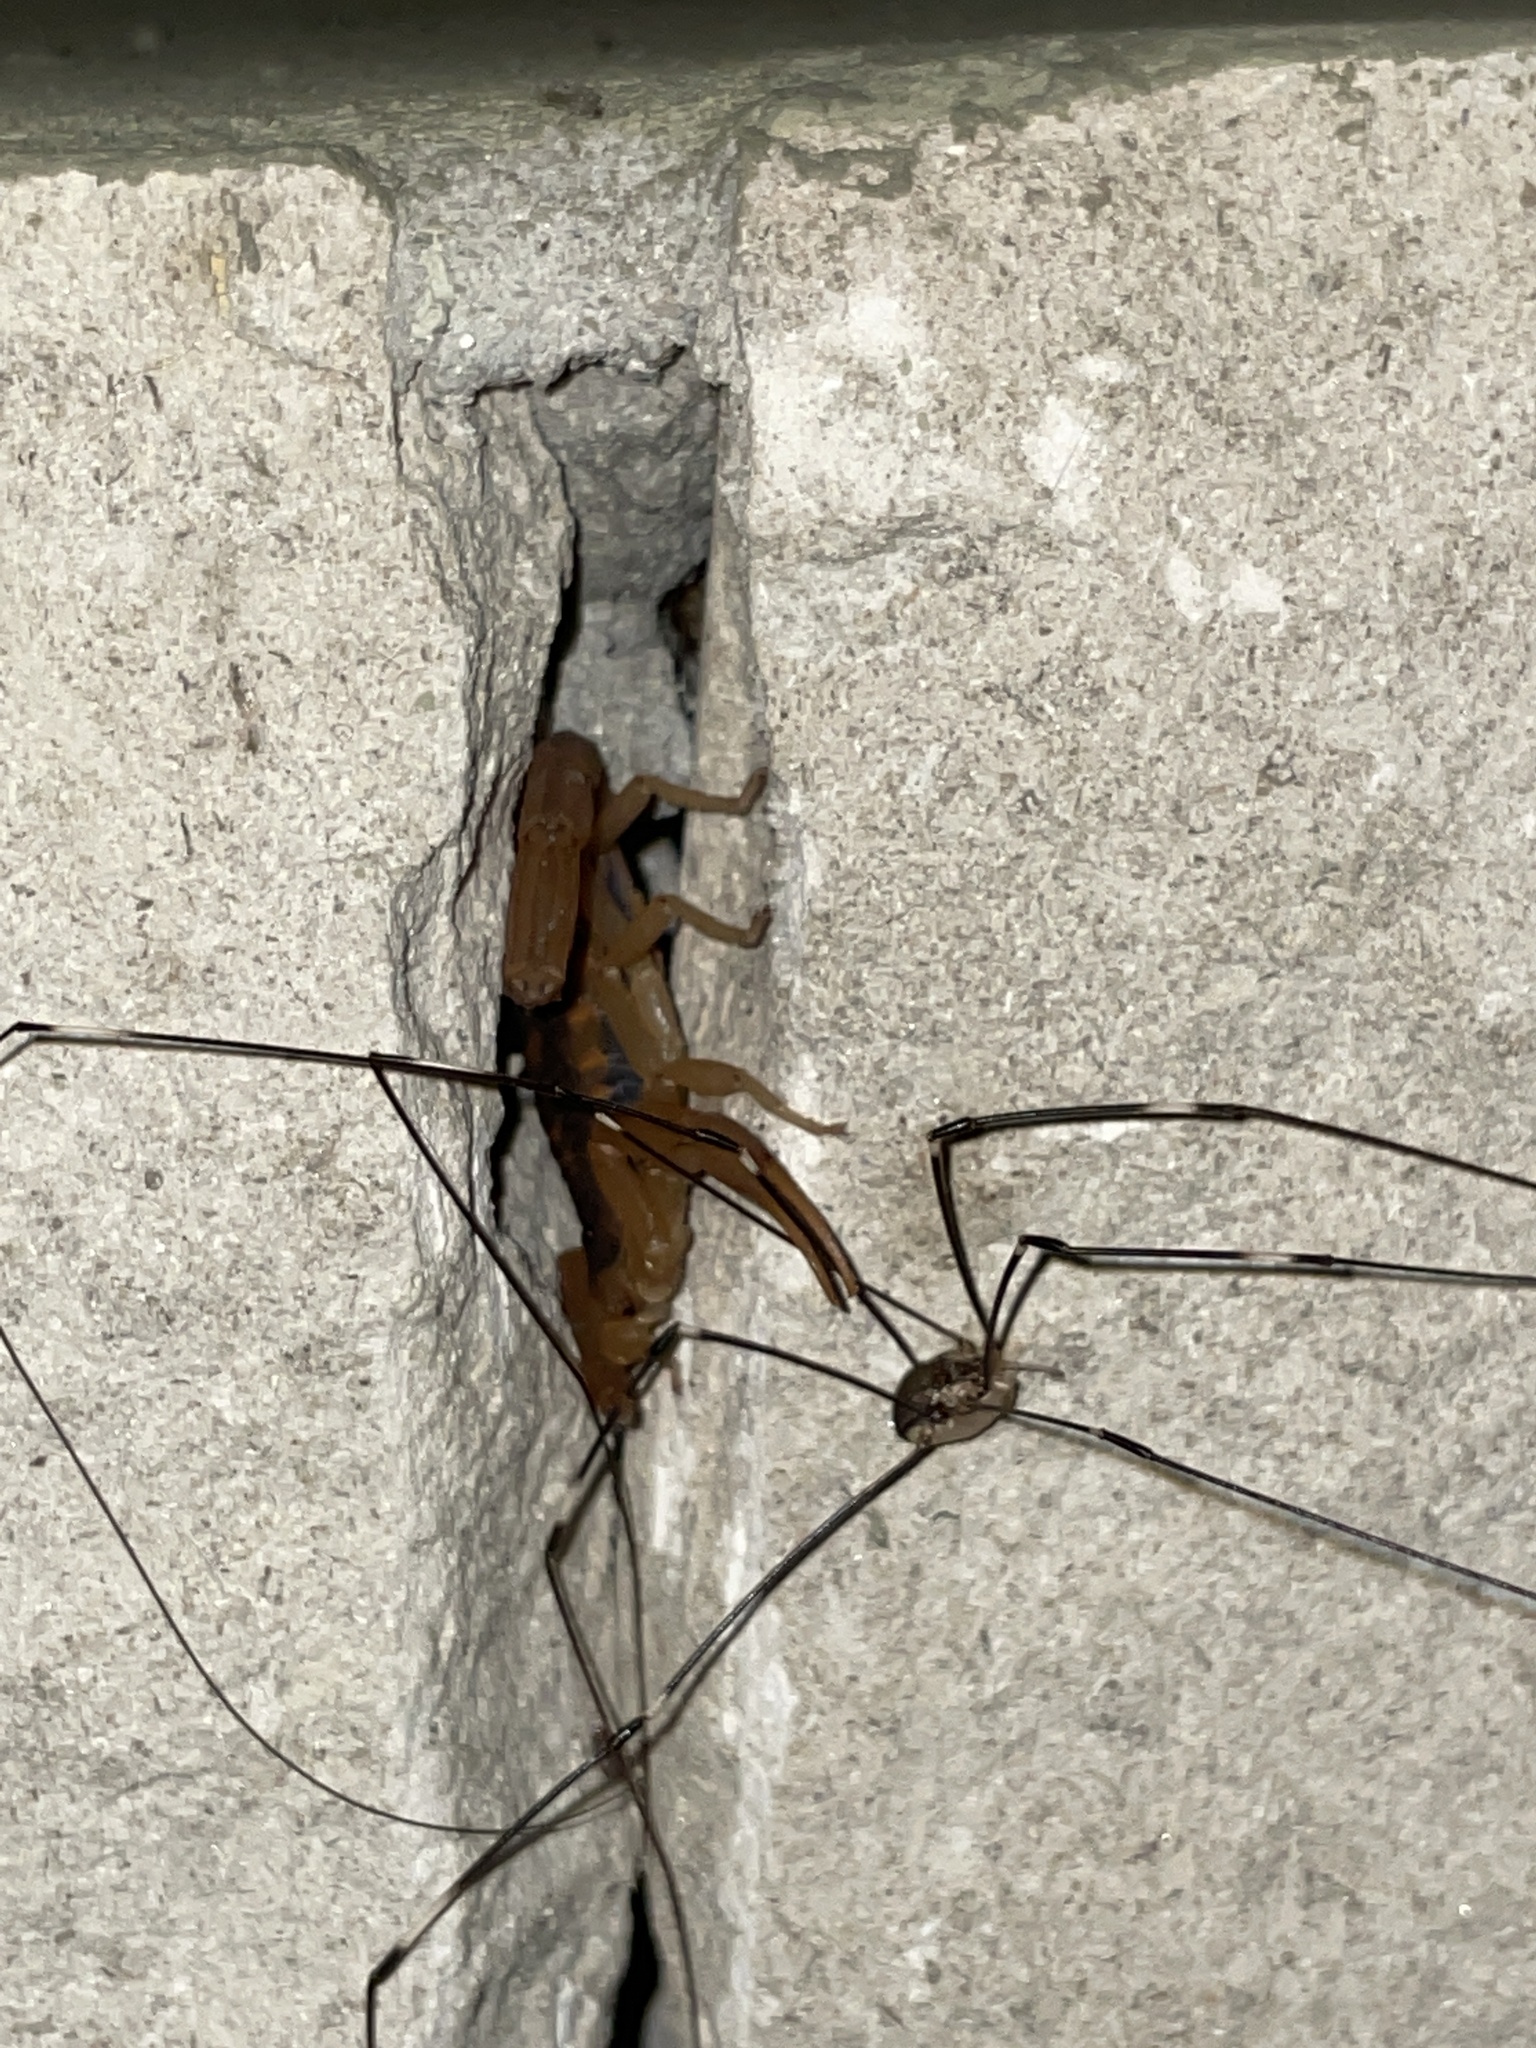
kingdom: Animalia
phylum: Arthropoda
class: Arachnida
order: Scorpiones
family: Buthidae
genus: Centruroides
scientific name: Centruroides vittatus
